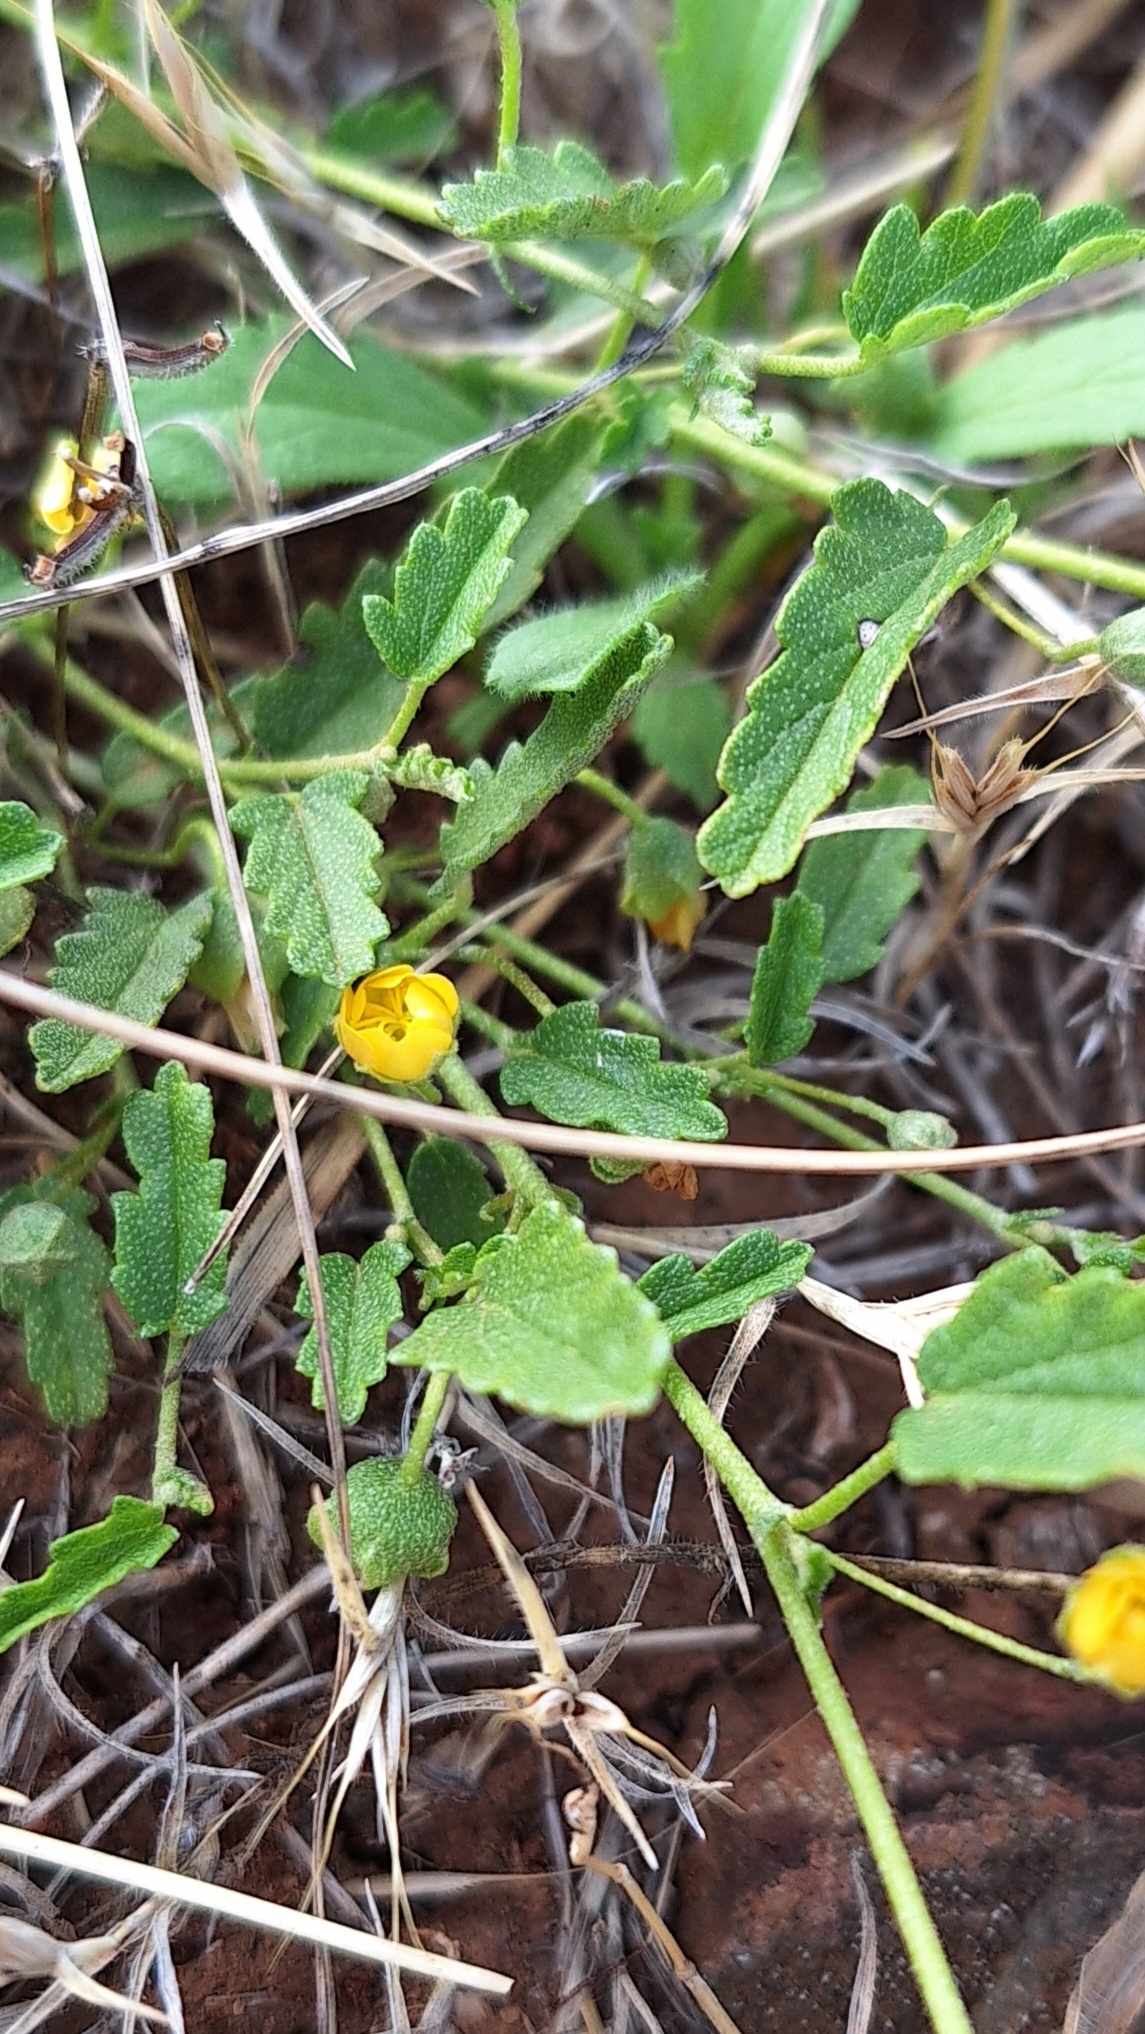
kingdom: Plantae
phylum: Tracheophyta
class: Magnoliopsida
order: Malvales
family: Malvaceae
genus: Sida
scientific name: Sida corrugata
